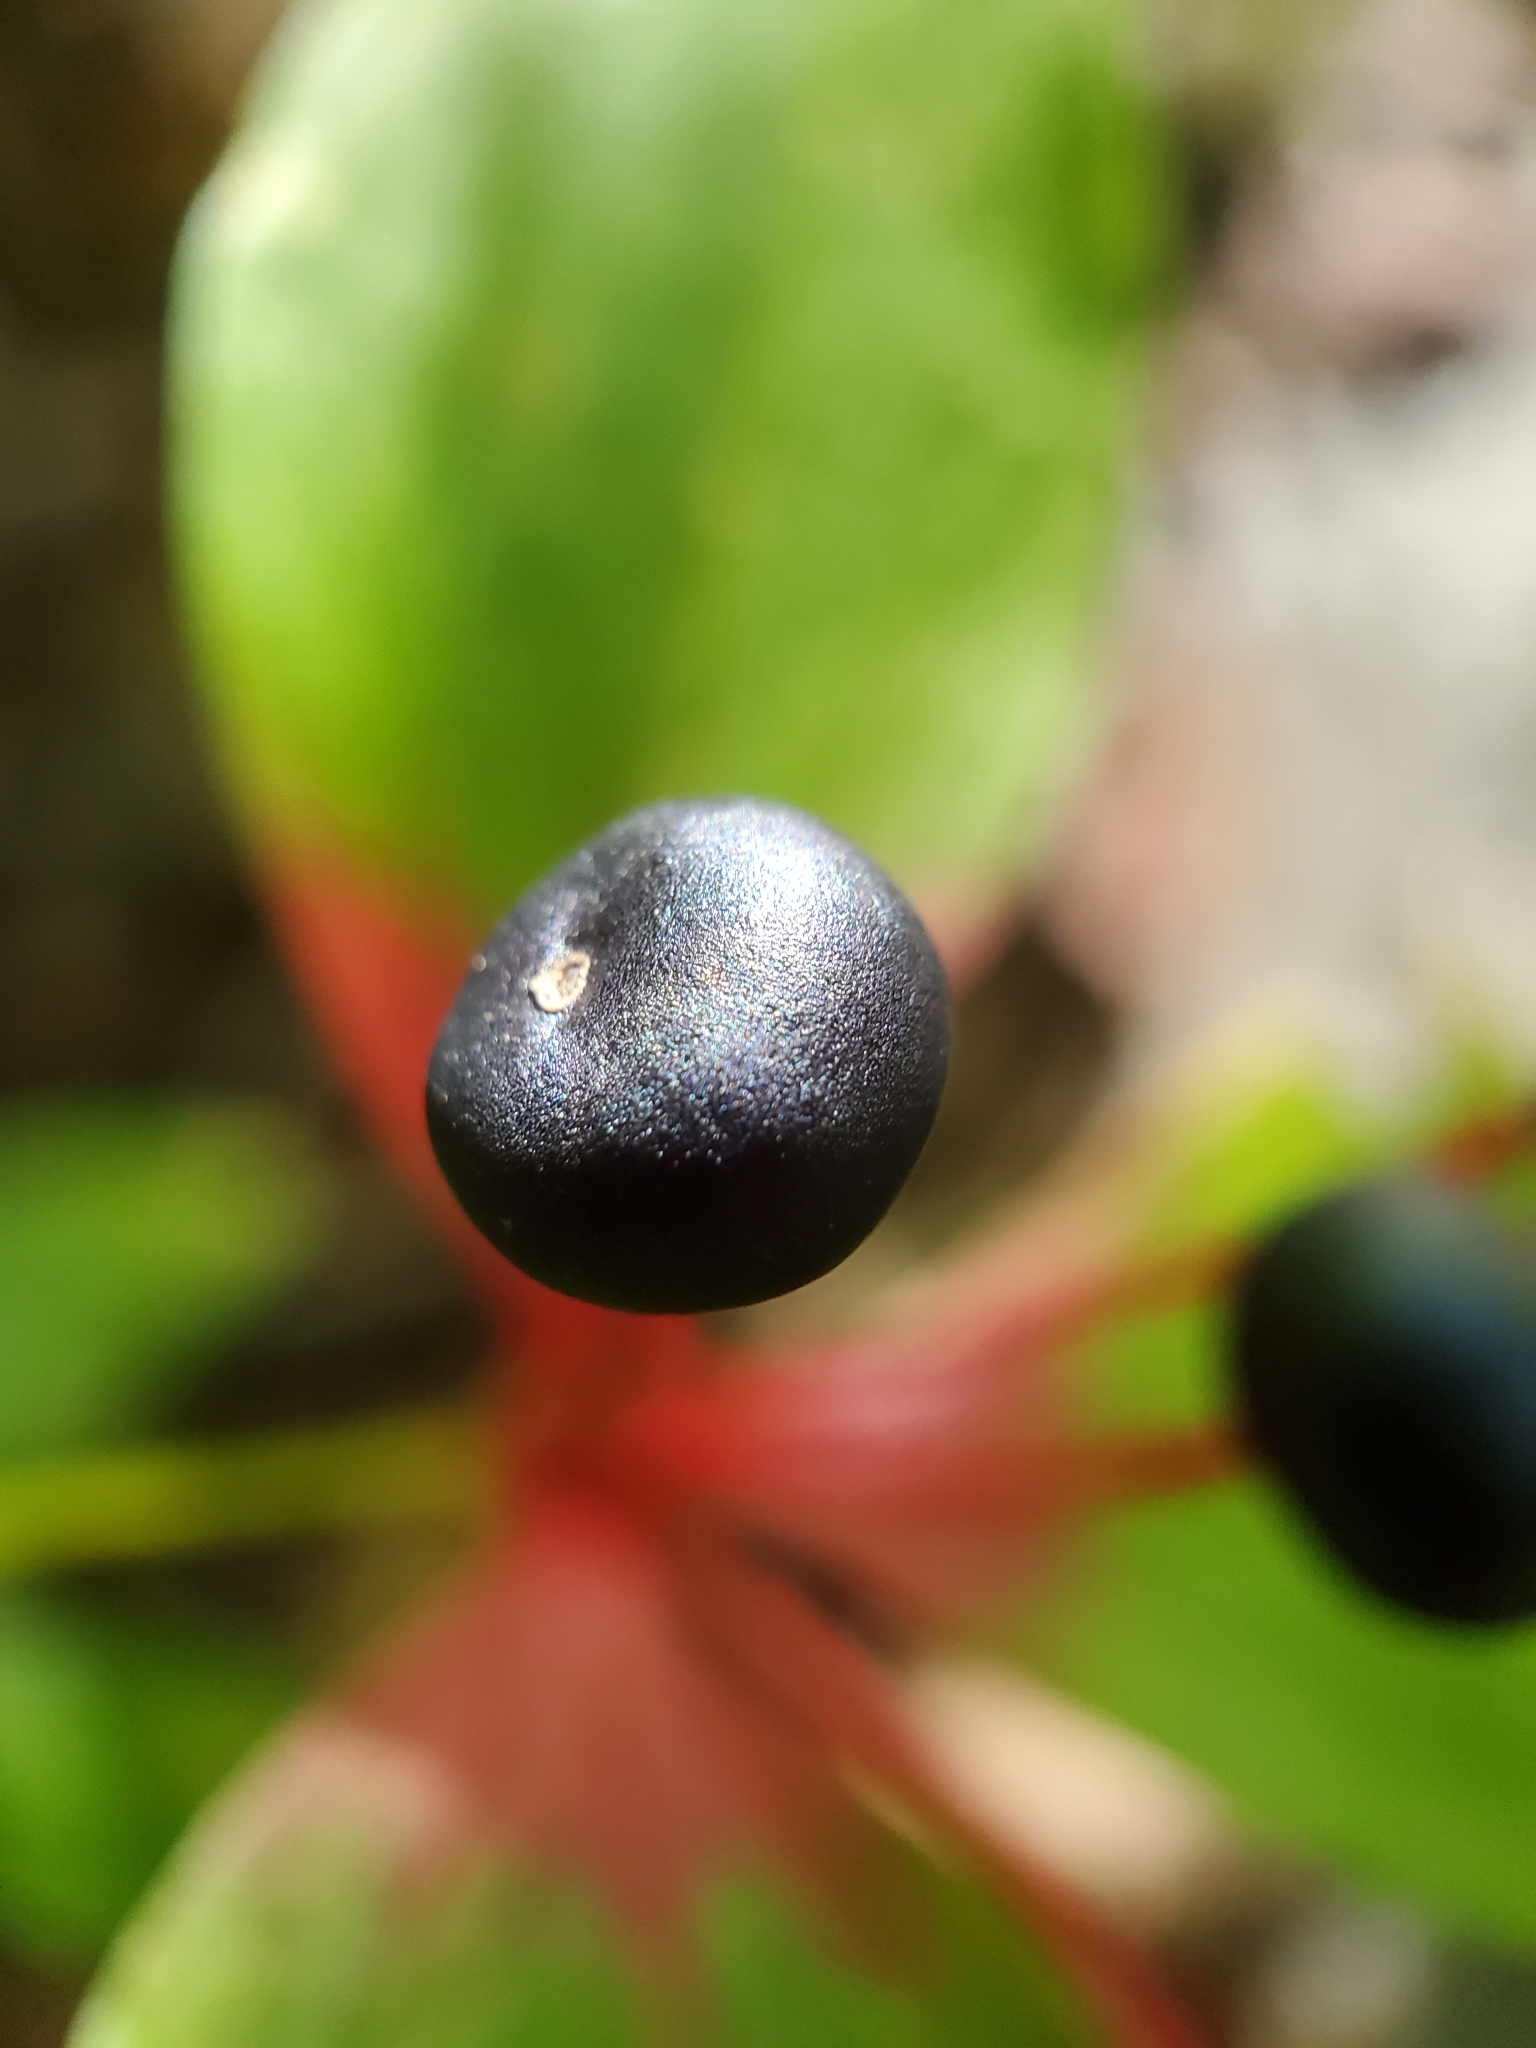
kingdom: Plantae
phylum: Tracheophyta
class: Liliopsida
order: Liliales
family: Liliaceae
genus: Medeola
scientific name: Medeola virginiana
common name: Indian cucumber-root
